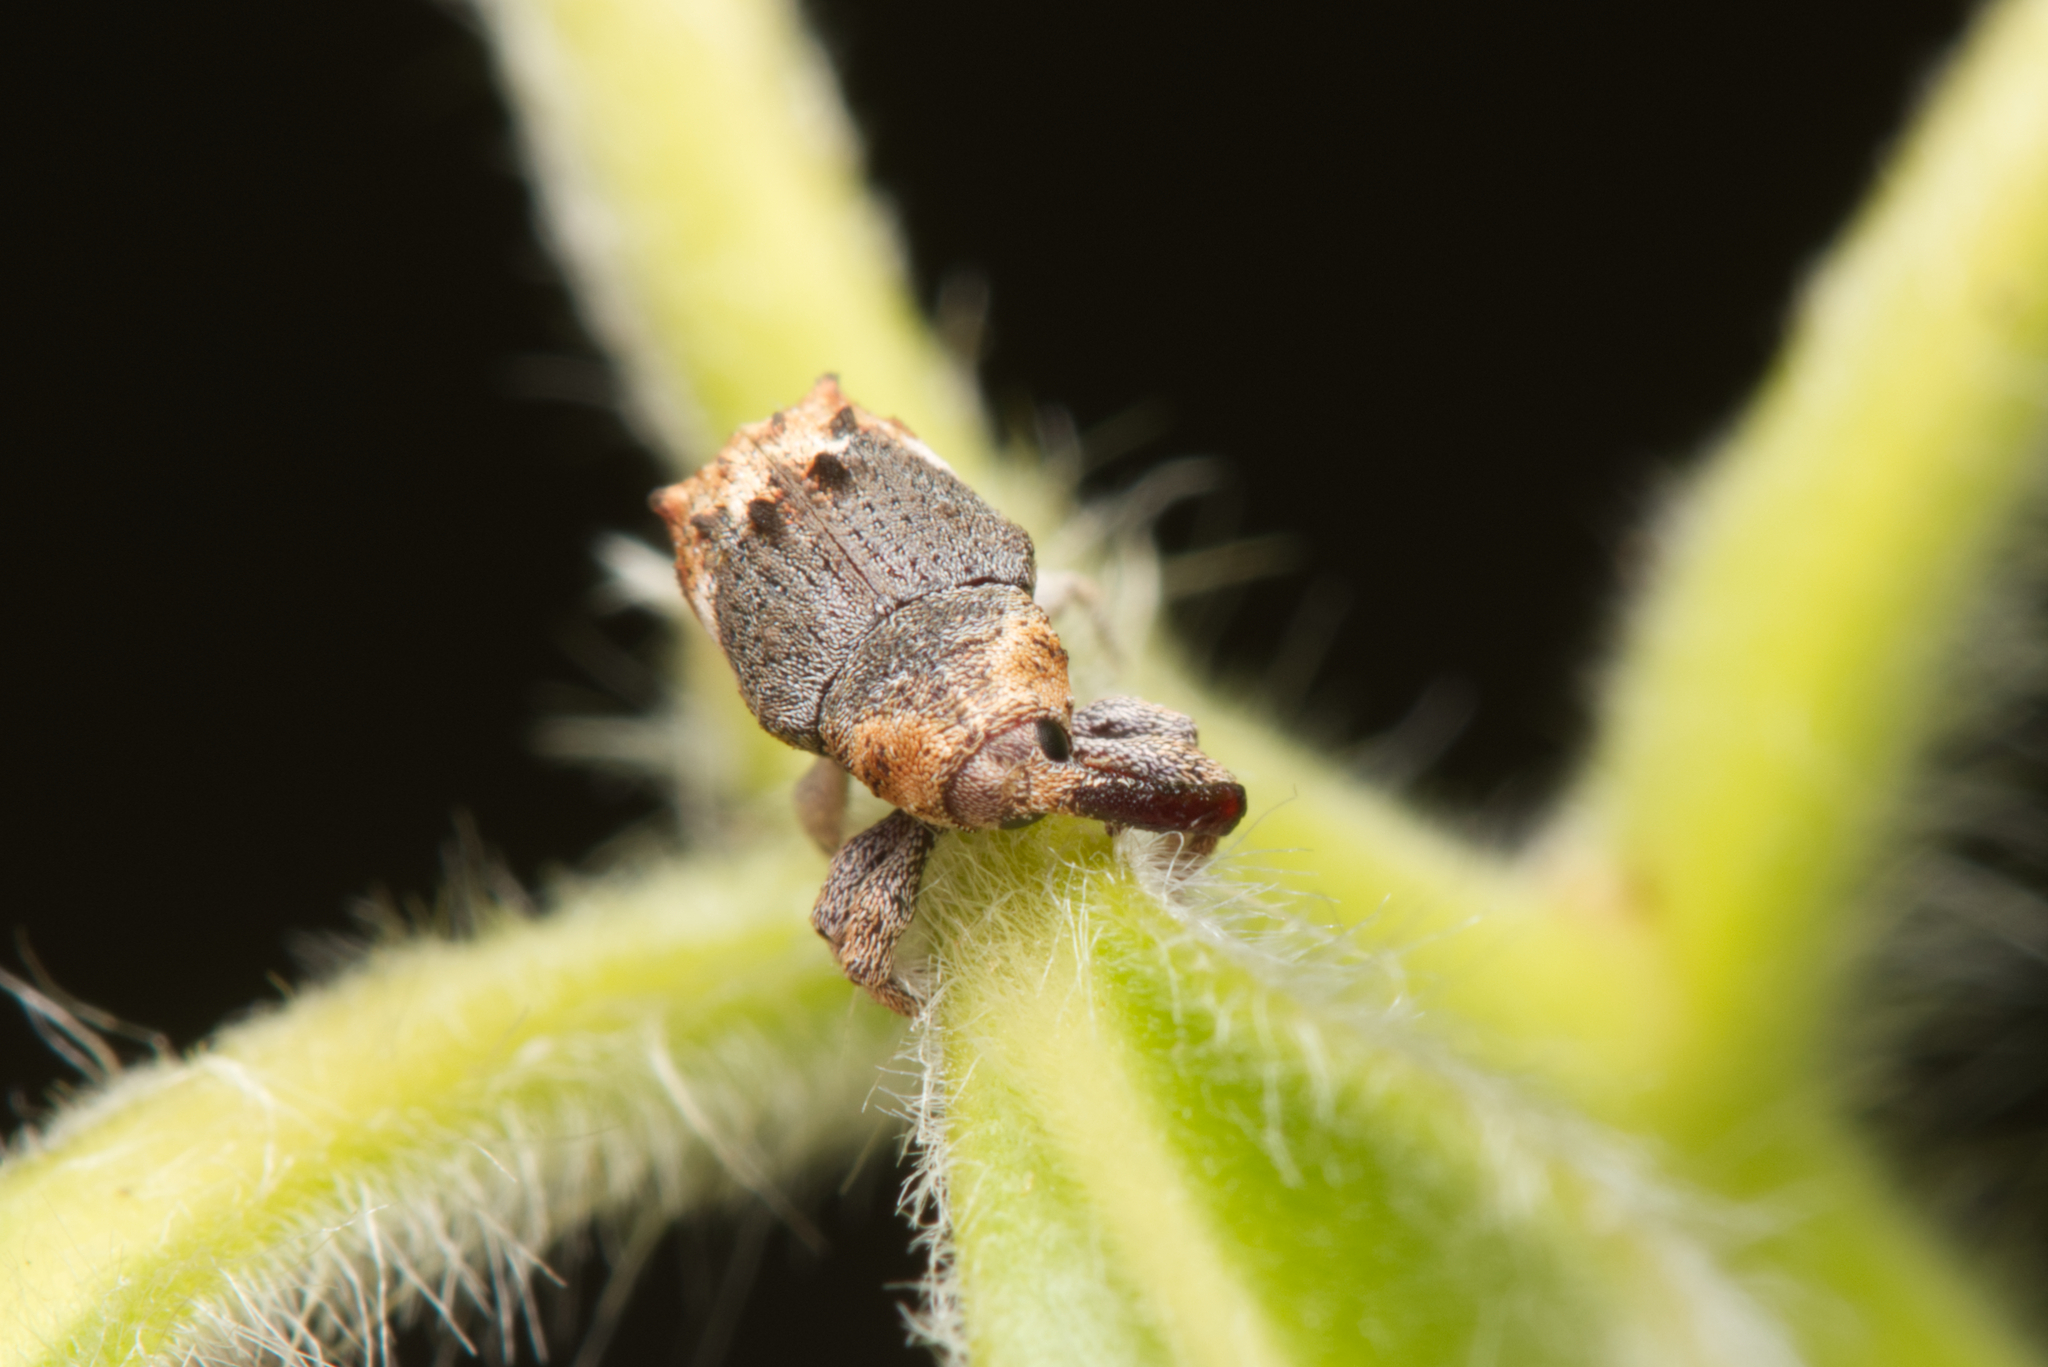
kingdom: Animalia
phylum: Arthropoda
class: Insecta
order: Coleoptera
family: Curculionidae
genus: Myllorhinus
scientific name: Myllorhinus
